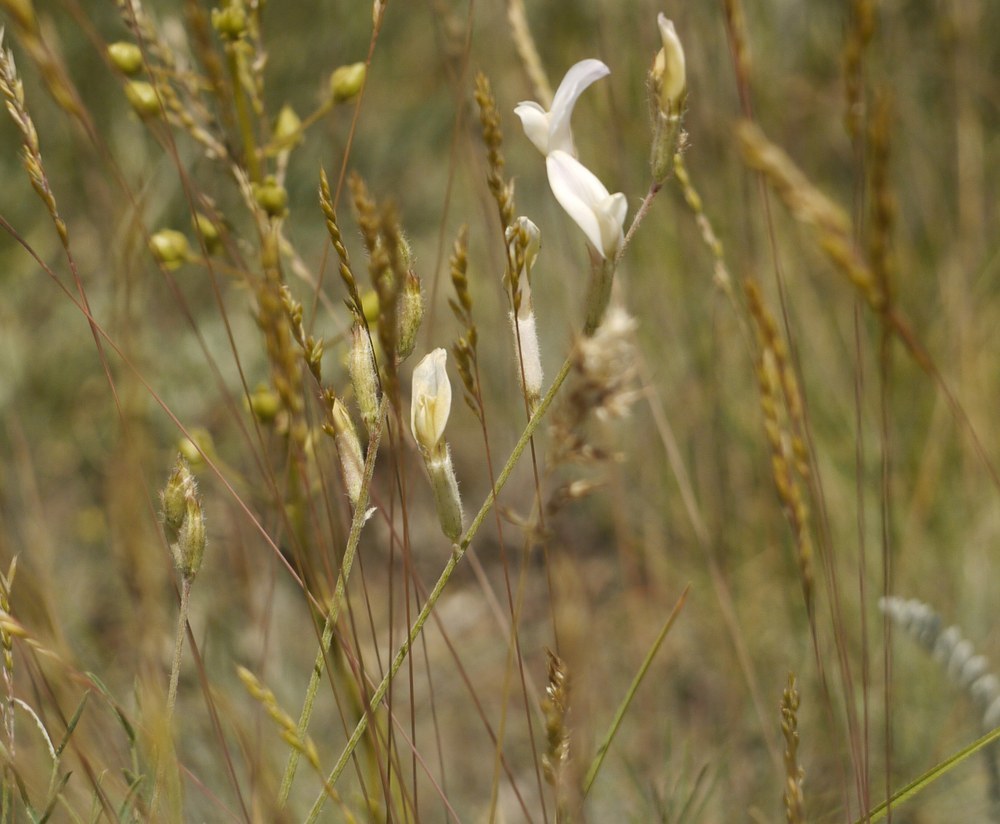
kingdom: Plantae
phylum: Tracheophyta
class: Magnoliopsida
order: Fabales
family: Fabaceae
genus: Astragalus
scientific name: Astragalus pallescens
